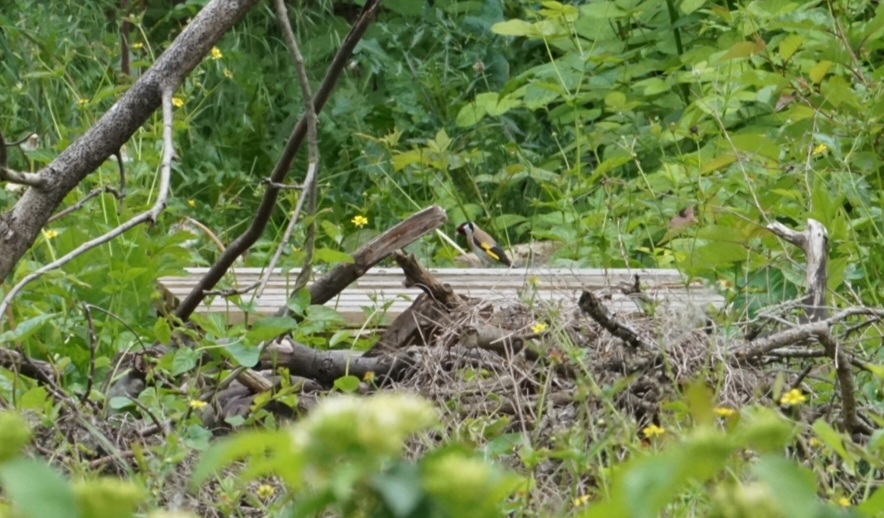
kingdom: Animalia
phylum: Chordata
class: Aves
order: Passeriformes
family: Fringillidae
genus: Carduelis
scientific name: Carduelis carduelis
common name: European goldfinch
